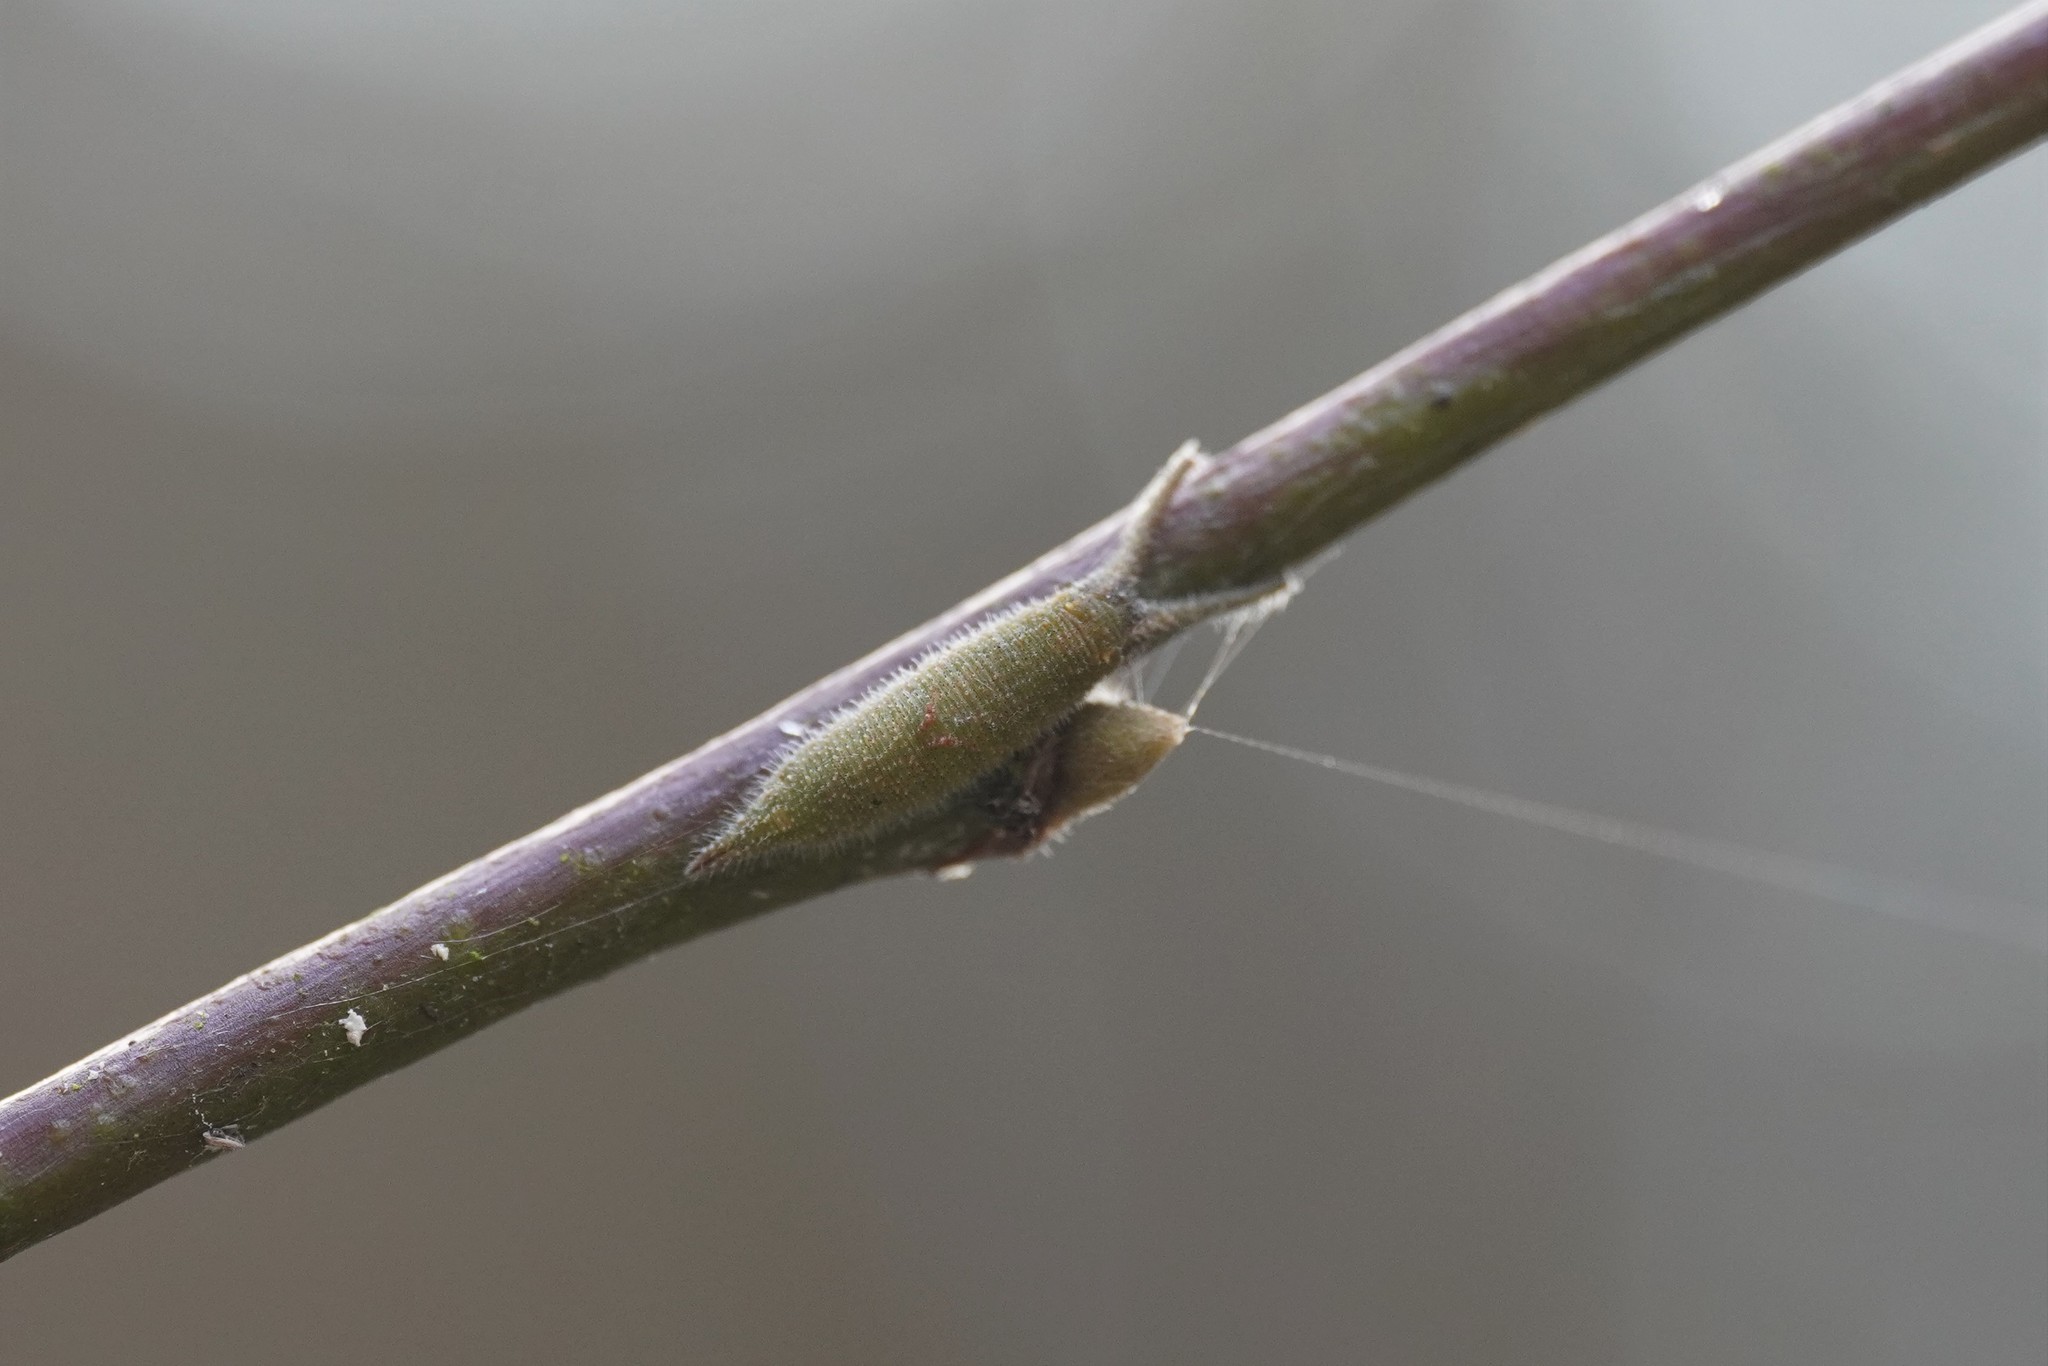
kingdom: Animalia
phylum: Arthropoda
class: Insecta
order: Lepidoptera
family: Nymphalidae
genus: Apatura
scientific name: Apatura iris
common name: Purple emperor
